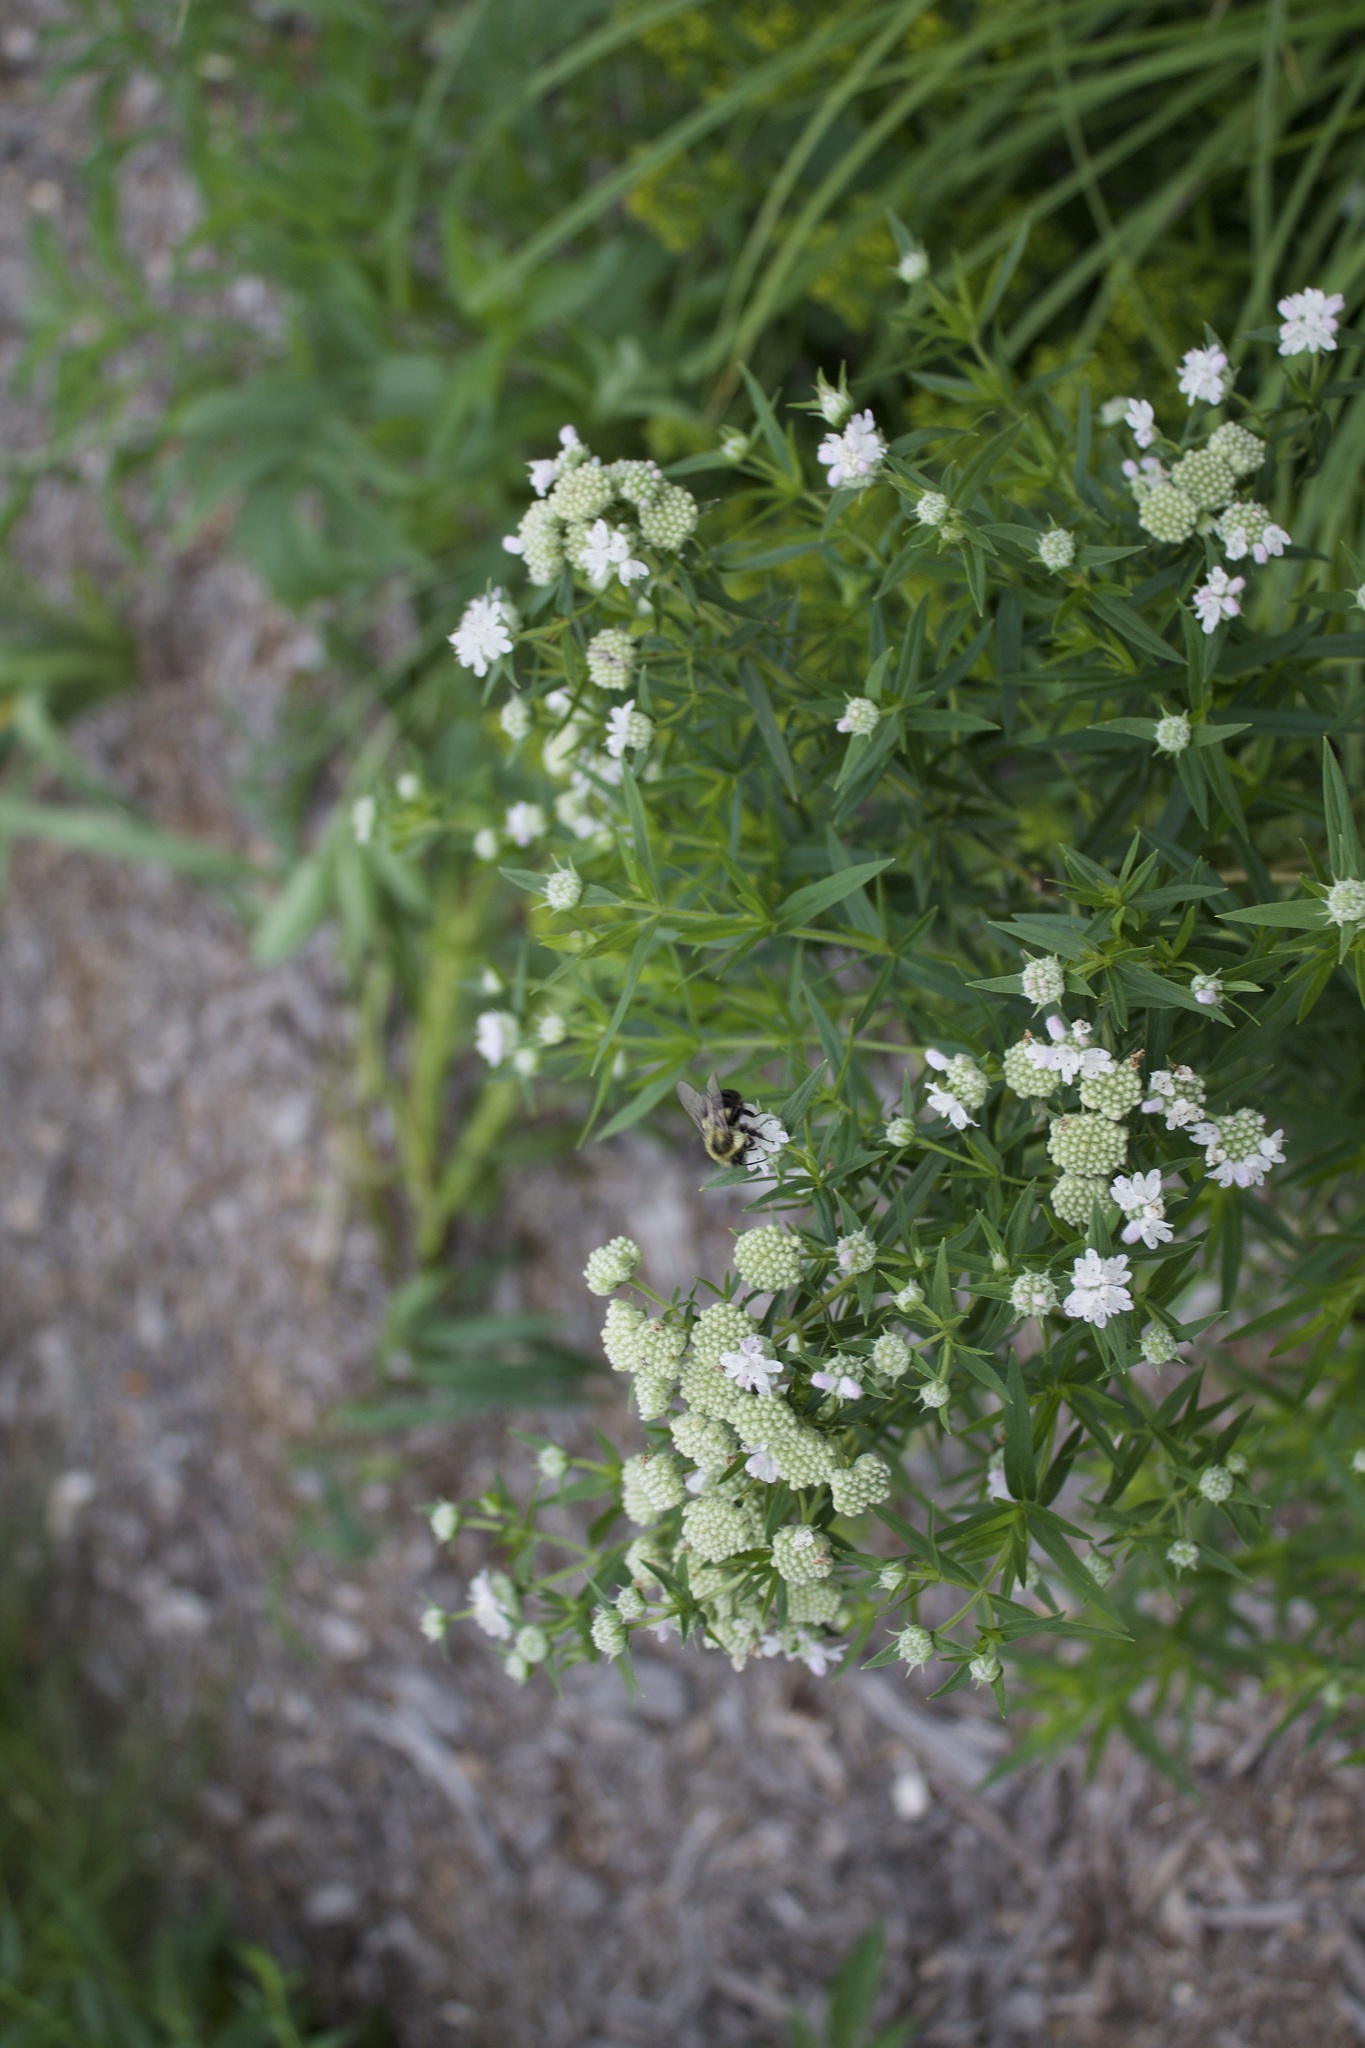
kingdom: Animalia
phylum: Arthropoda
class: Insecta
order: Hymenoptera
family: Apidae
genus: Bombus
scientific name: Bombus impatiens
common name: Common eastern bumble bee
